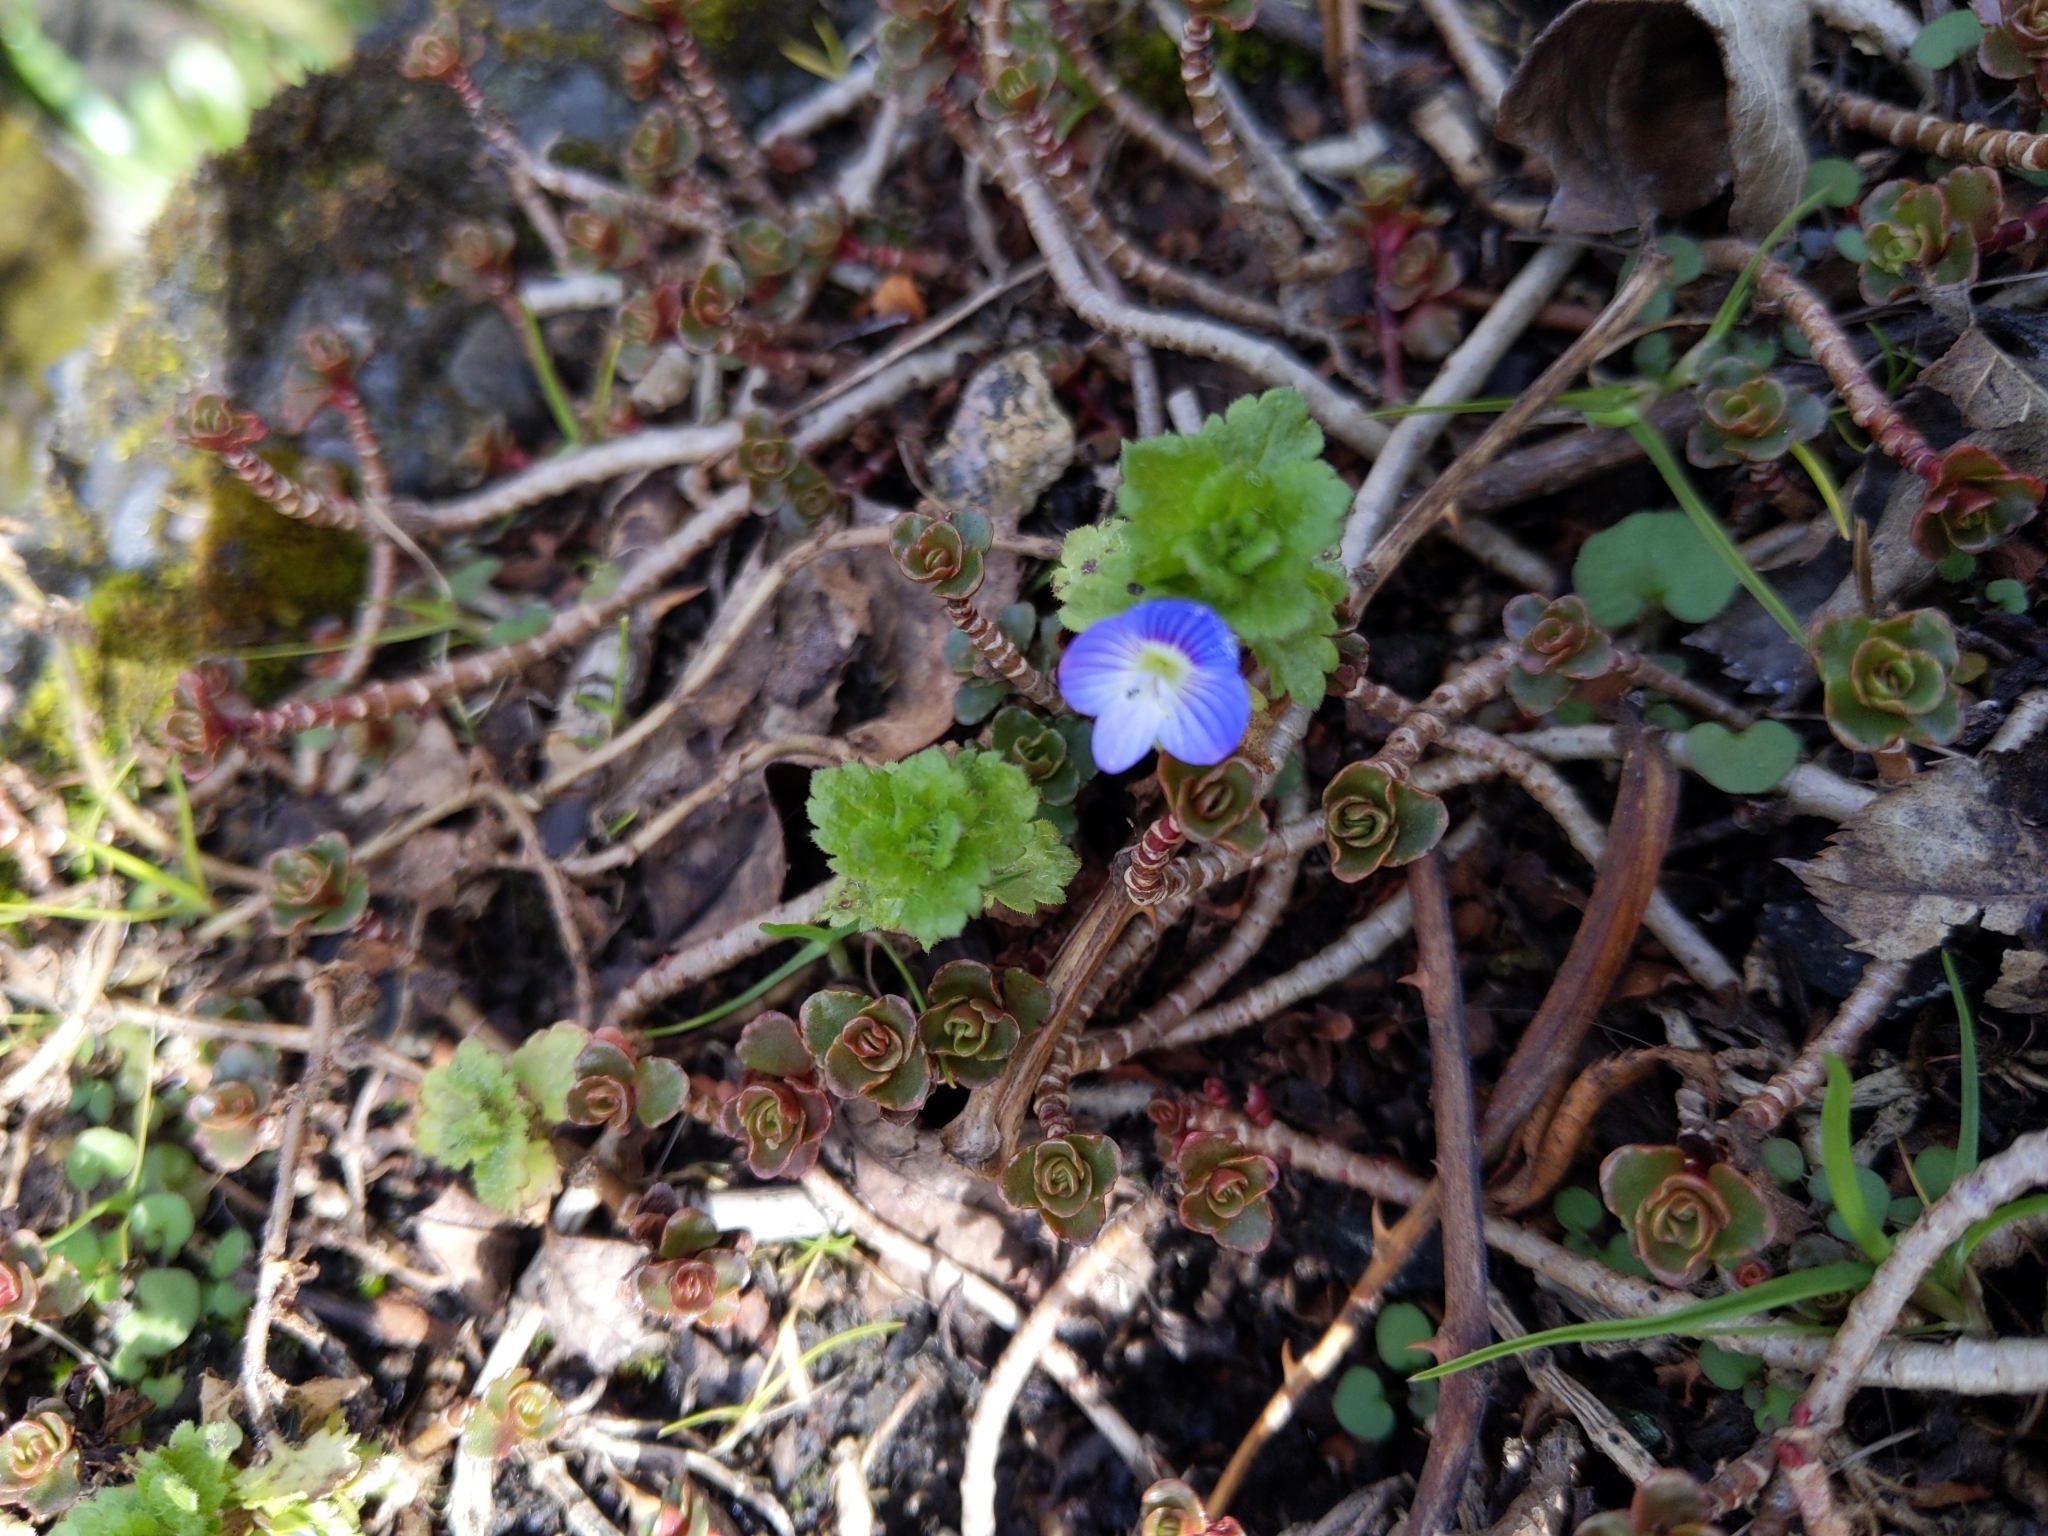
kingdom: Plantae
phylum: Tracheophyta
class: Magnoliopsida
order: Lamiales
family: Plantaginaceae
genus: Veronica
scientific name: Veronica persica
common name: Common field-speedwell
